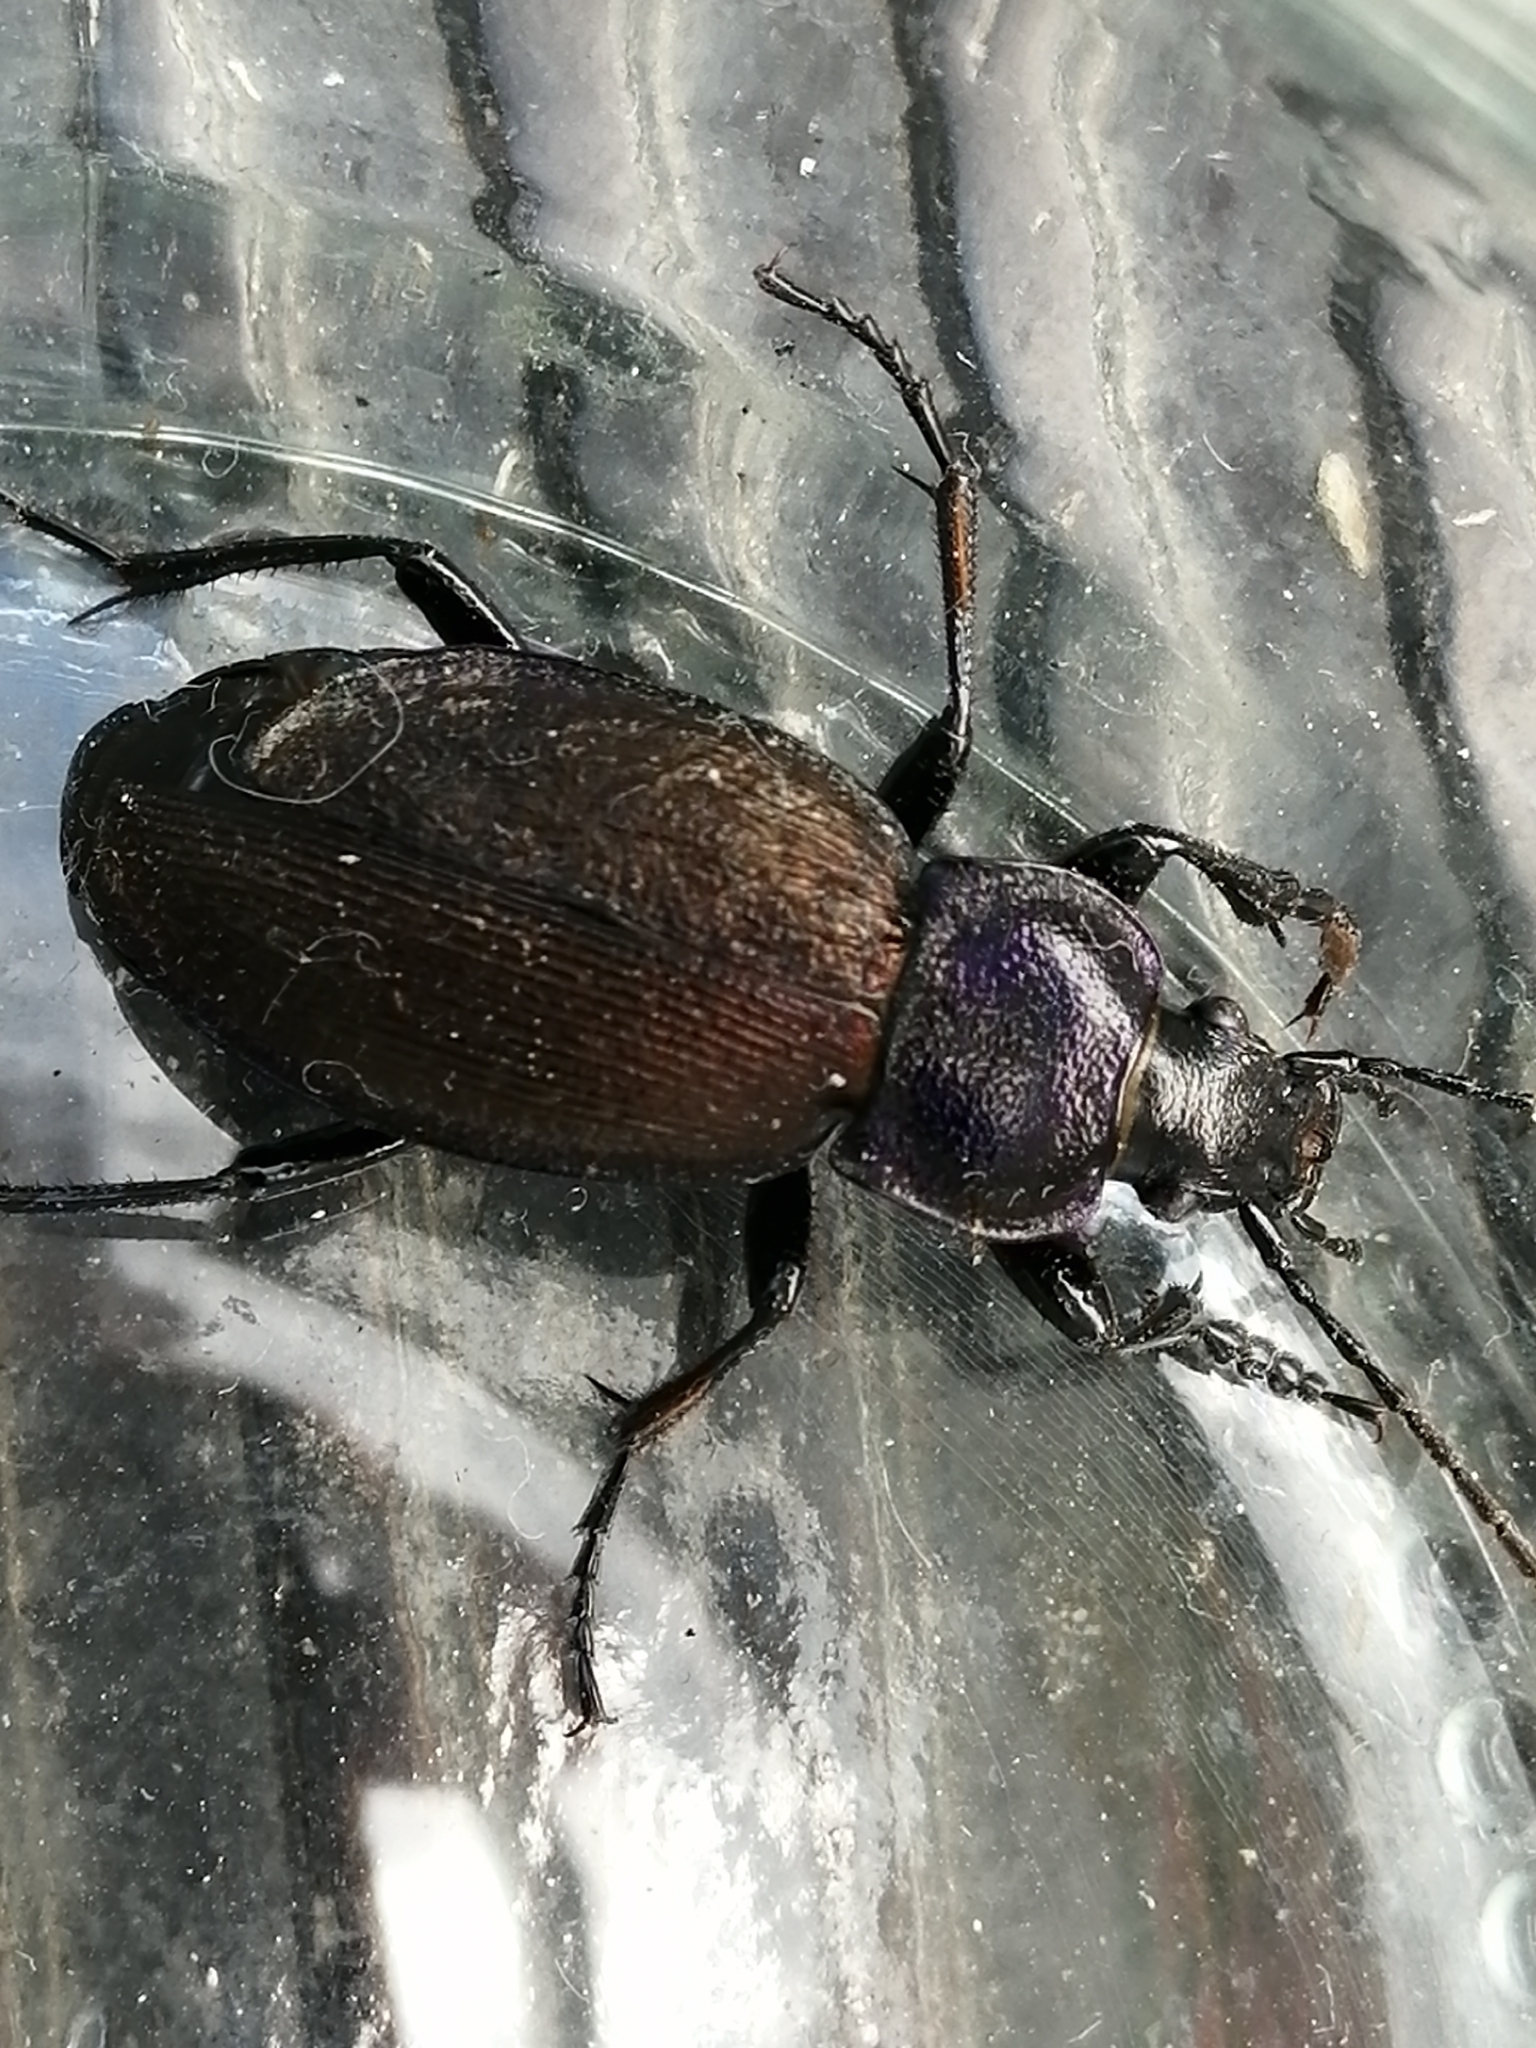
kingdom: Animalia
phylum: Arthropoda
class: Insecta
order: Coleoptera
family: Carabidae
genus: Carabus
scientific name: Carabus regalis
